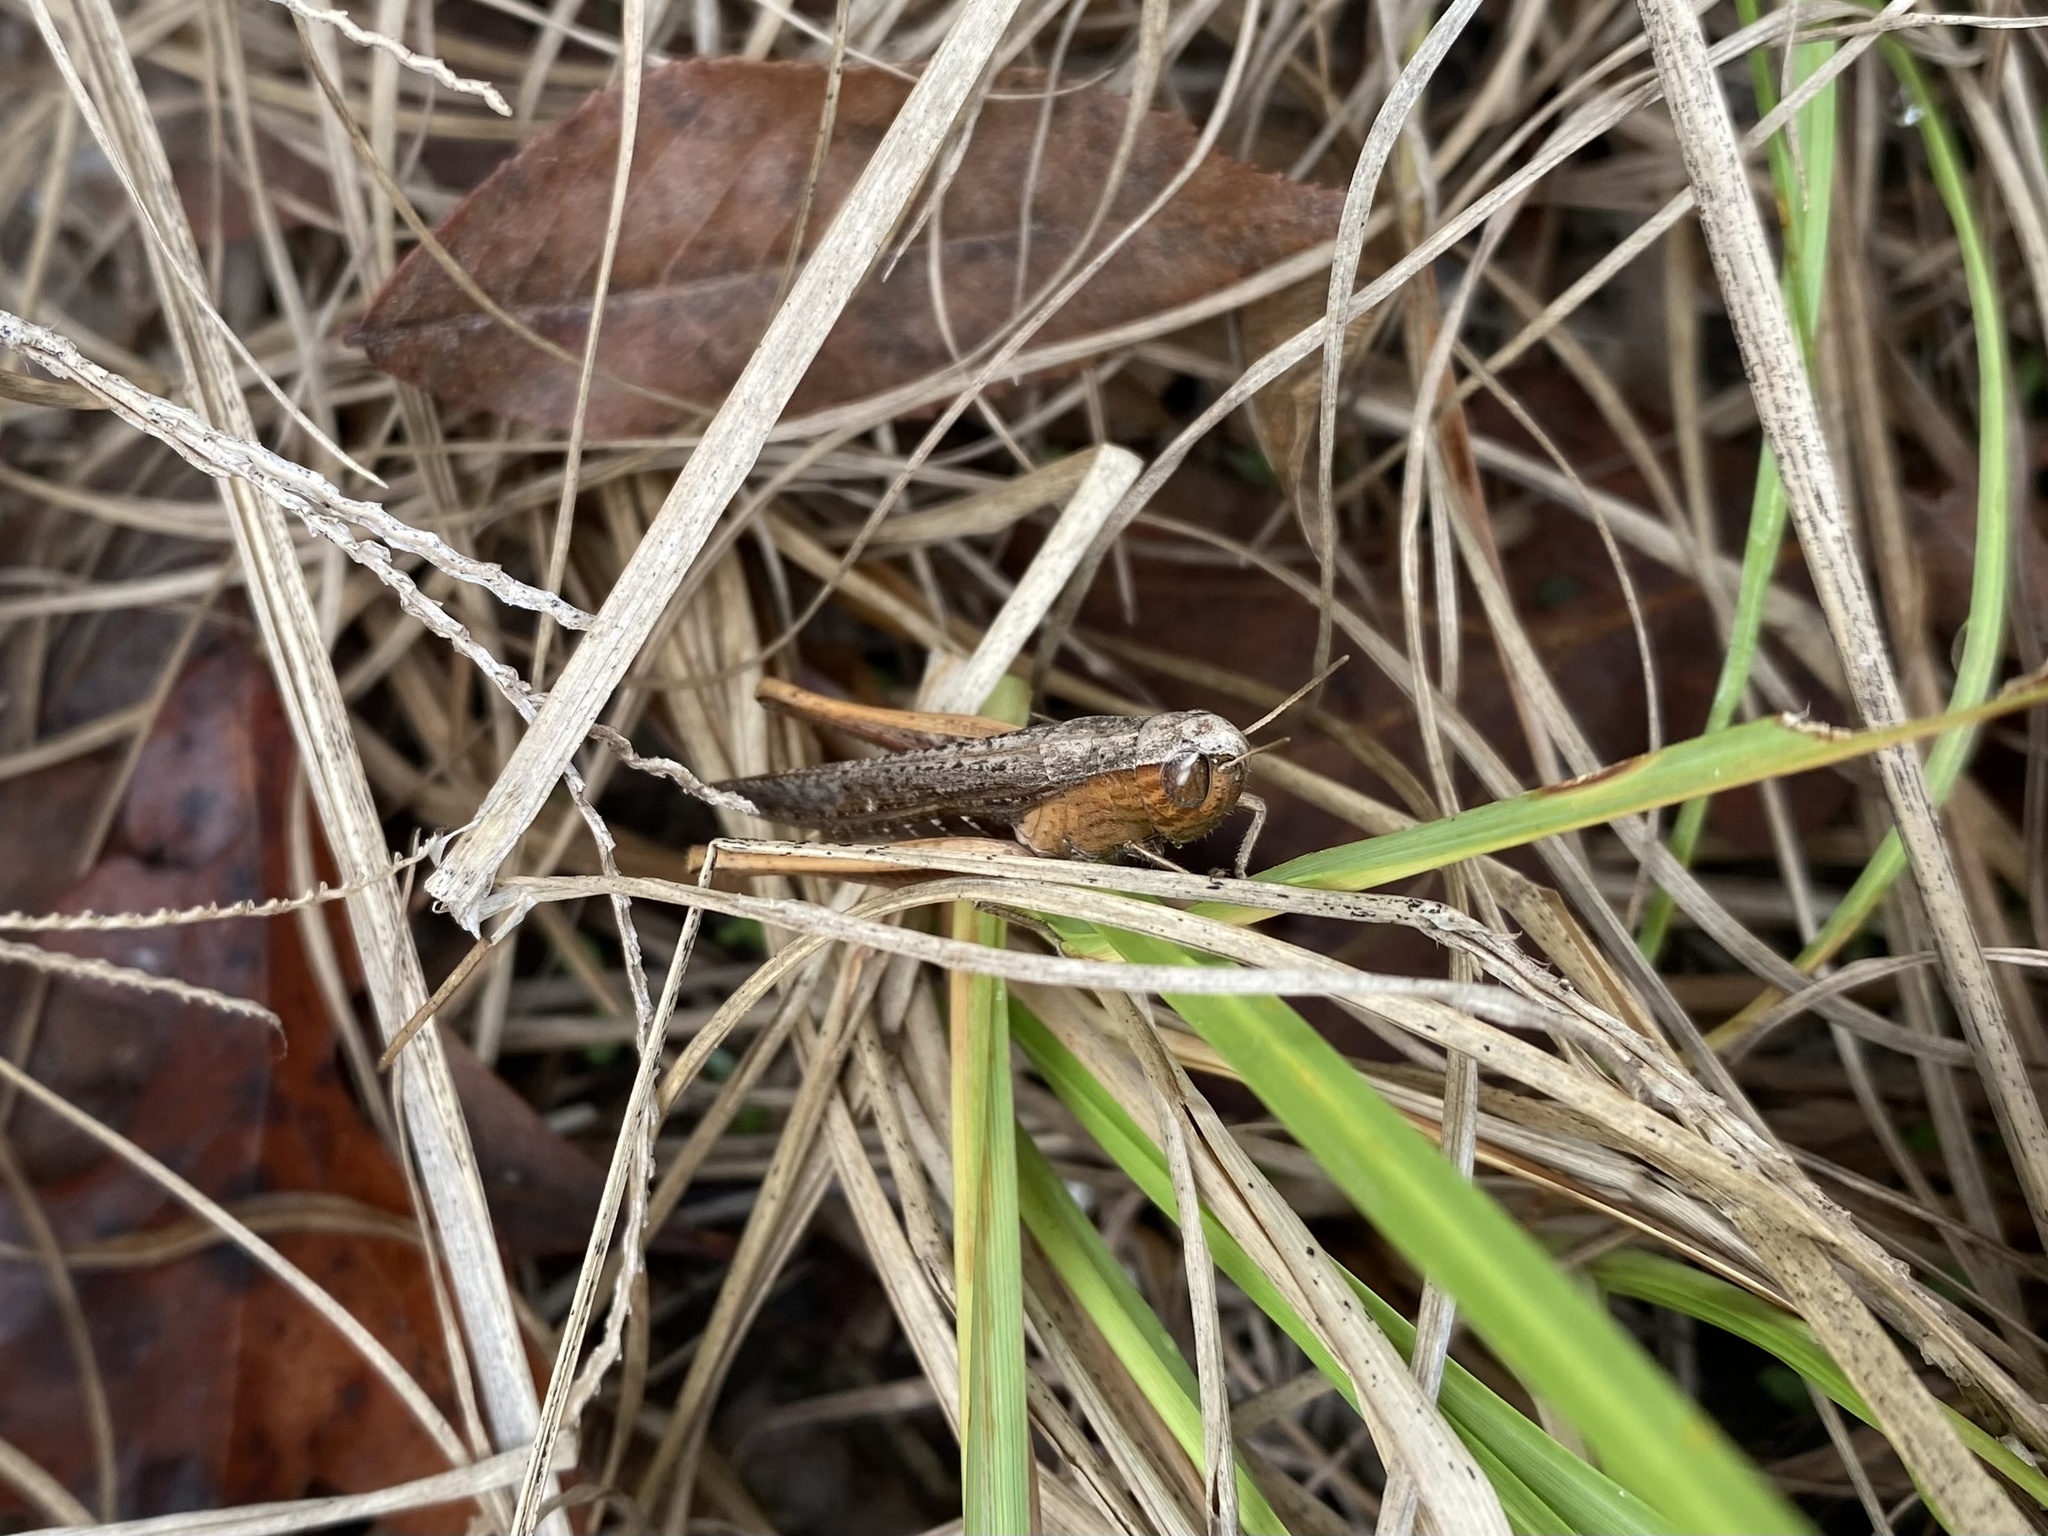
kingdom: Animalia
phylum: Arthropoda
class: Insecta
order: Orthoptera
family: Acrididae
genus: Amblytropidia
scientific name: Amblytropidia mysteca
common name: Brown winter grasshopper
